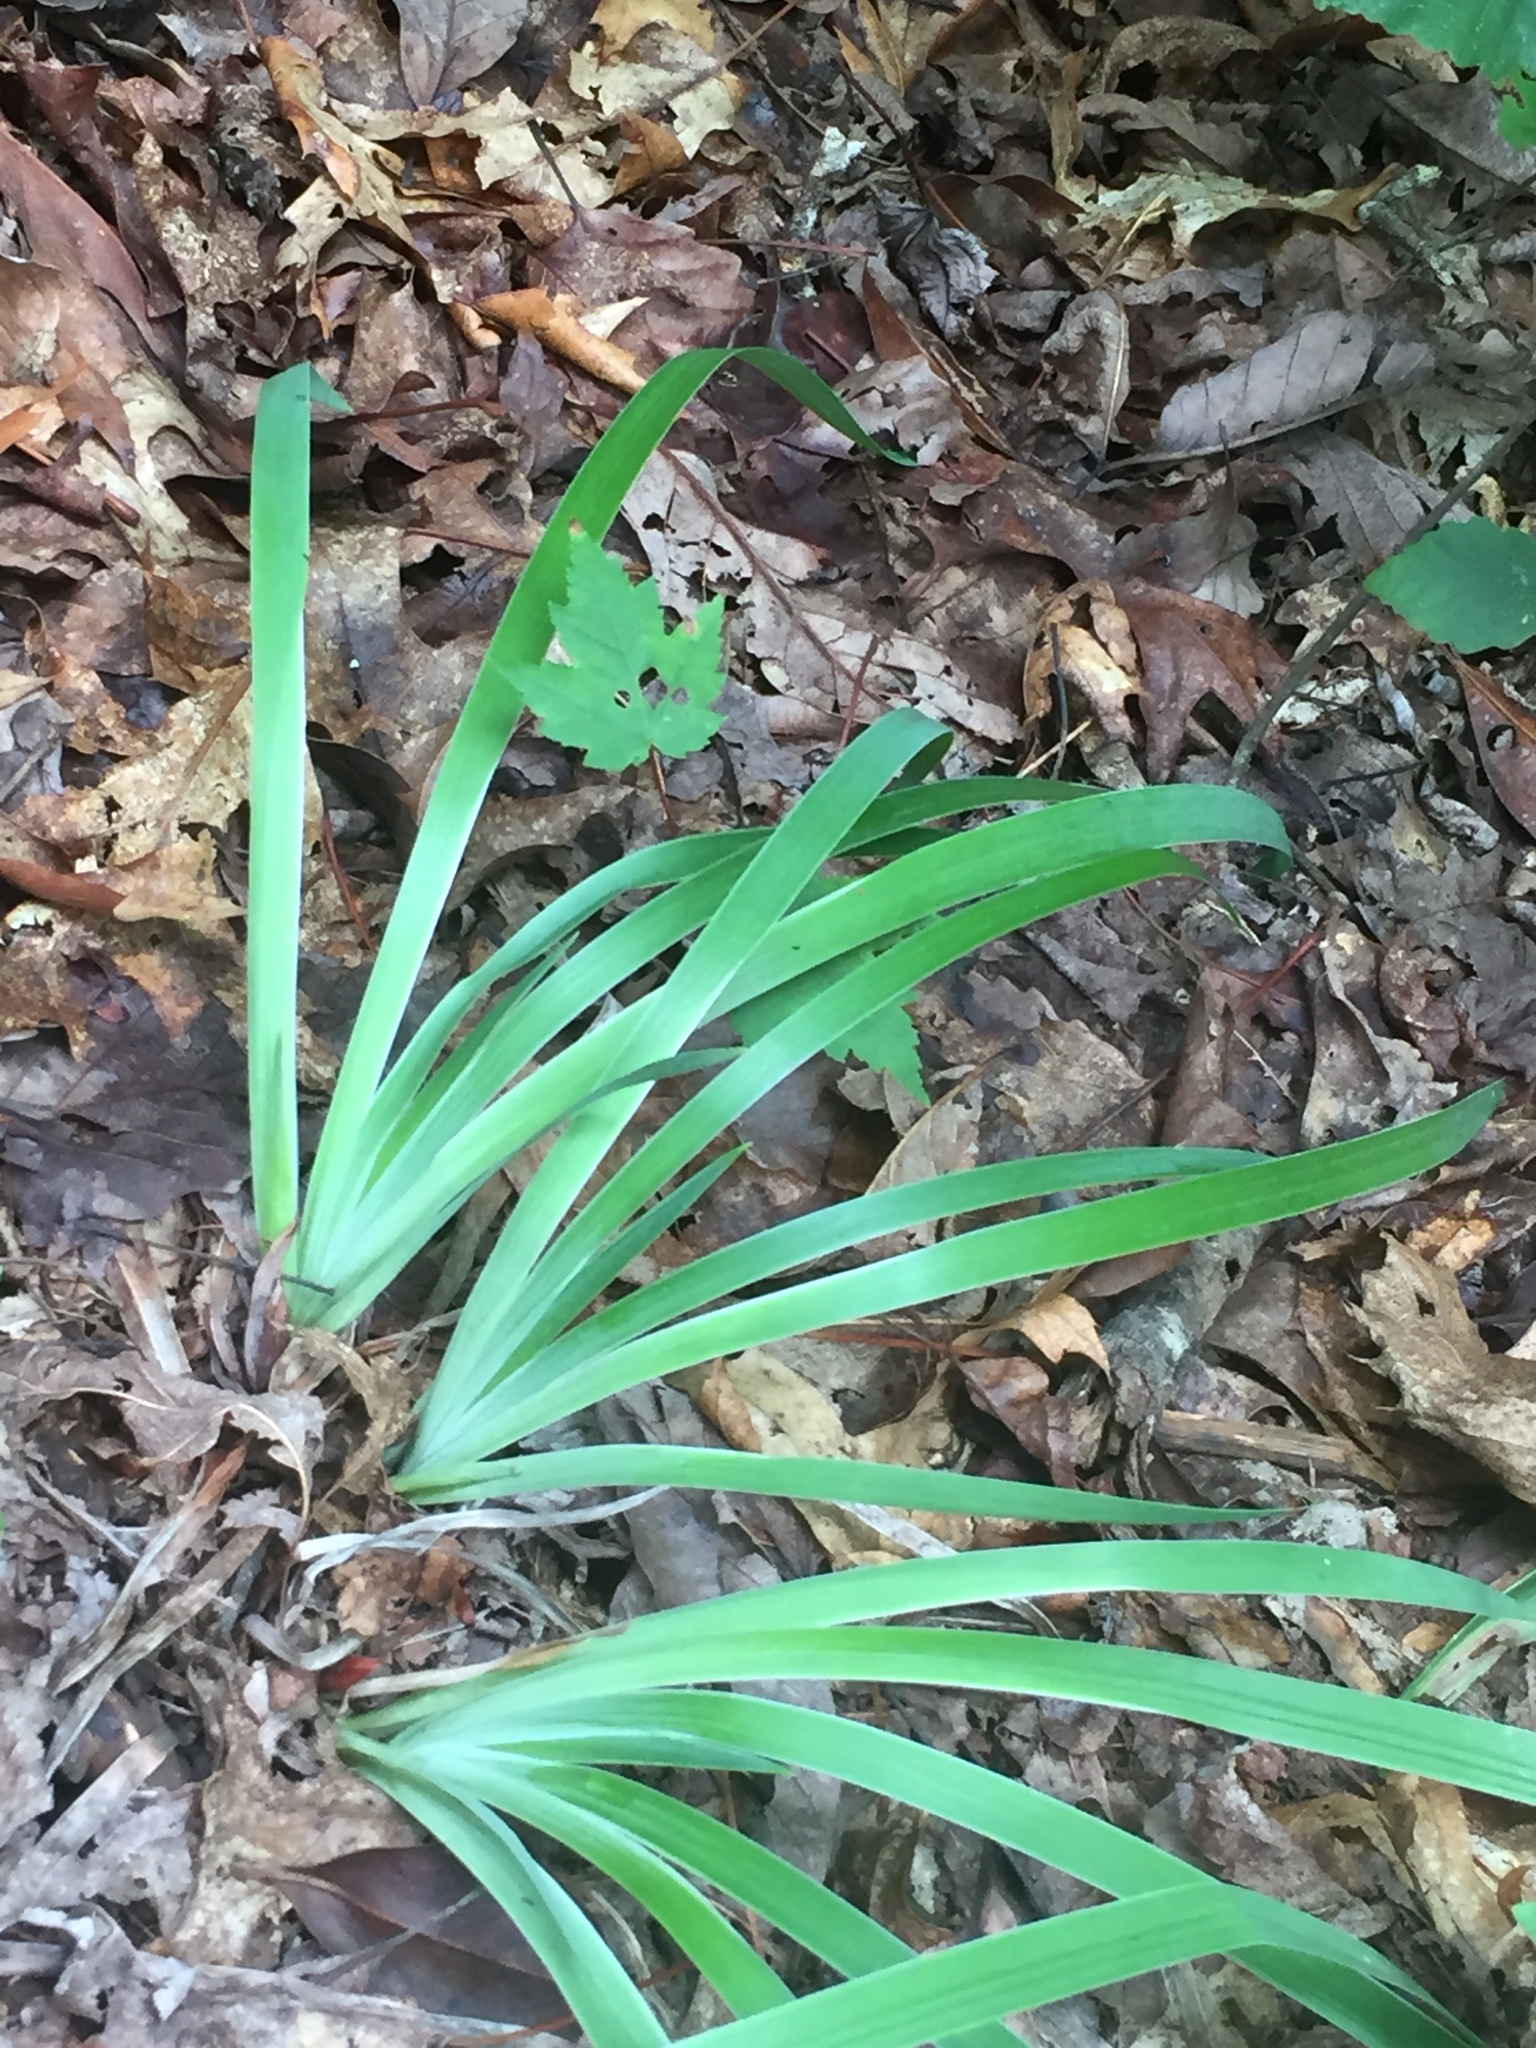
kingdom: Plantae
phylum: Tracheophyta
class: Liliopsida
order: Asparagales
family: Iridaceae
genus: Iris
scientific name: Iris verna
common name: Dwarf iris
